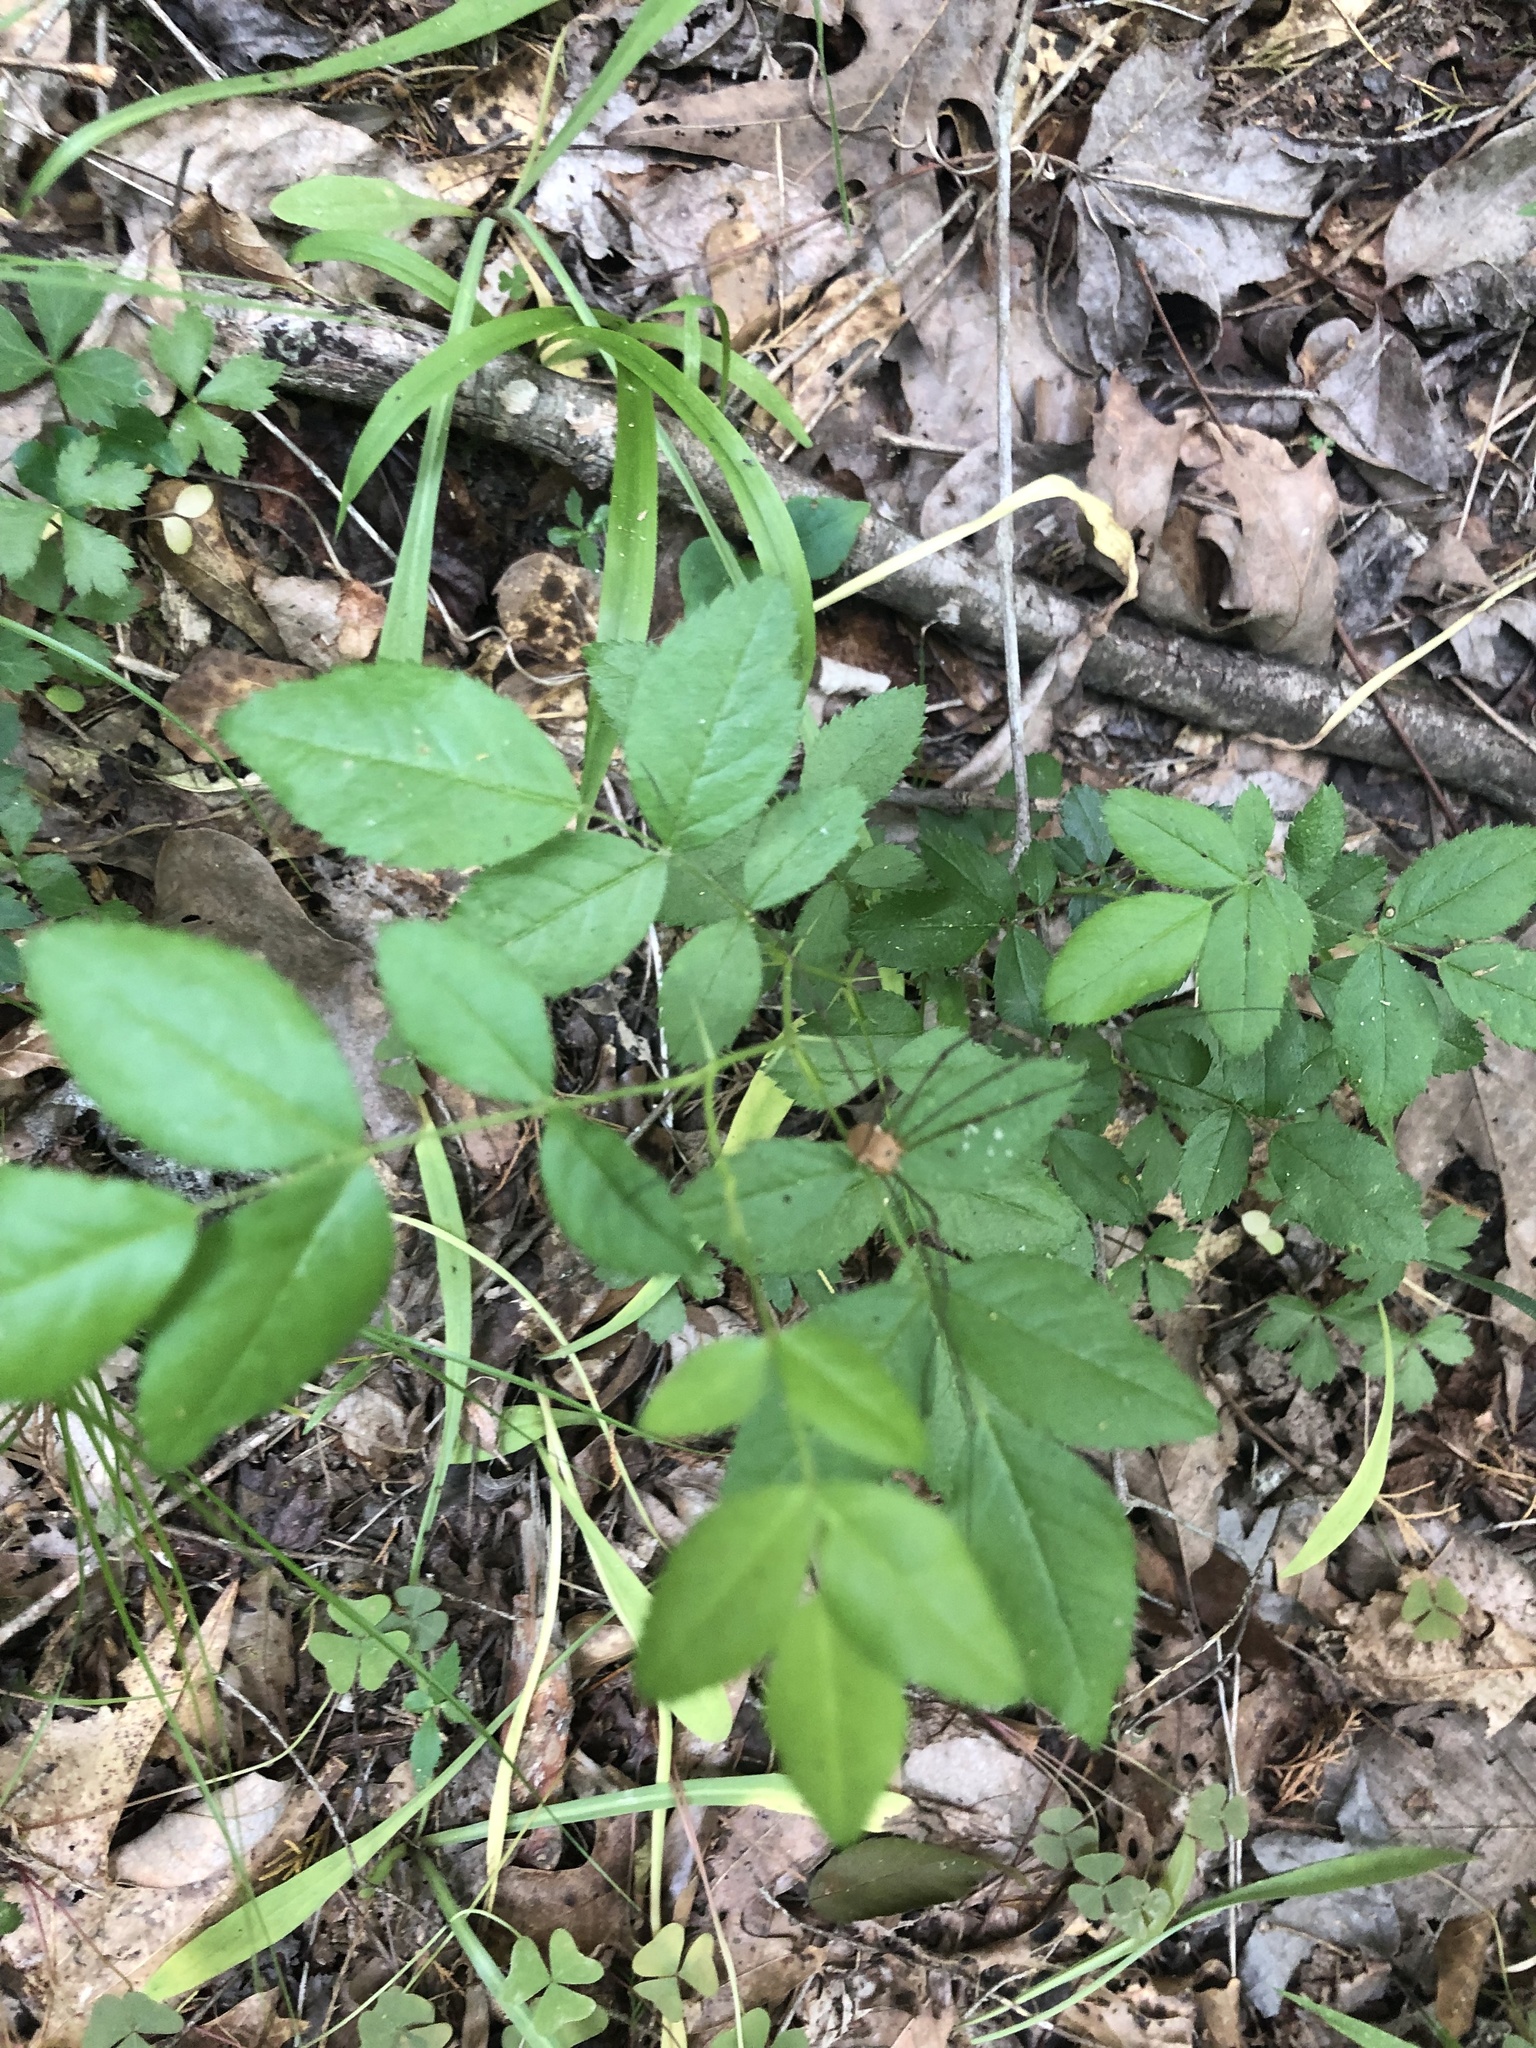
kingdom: Plantae
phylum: Tracheophyta
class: Magnoliopsida
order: Rosales
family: Rosaceae
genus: Rosa
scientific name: Rosa carolina
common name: Pasture rose
